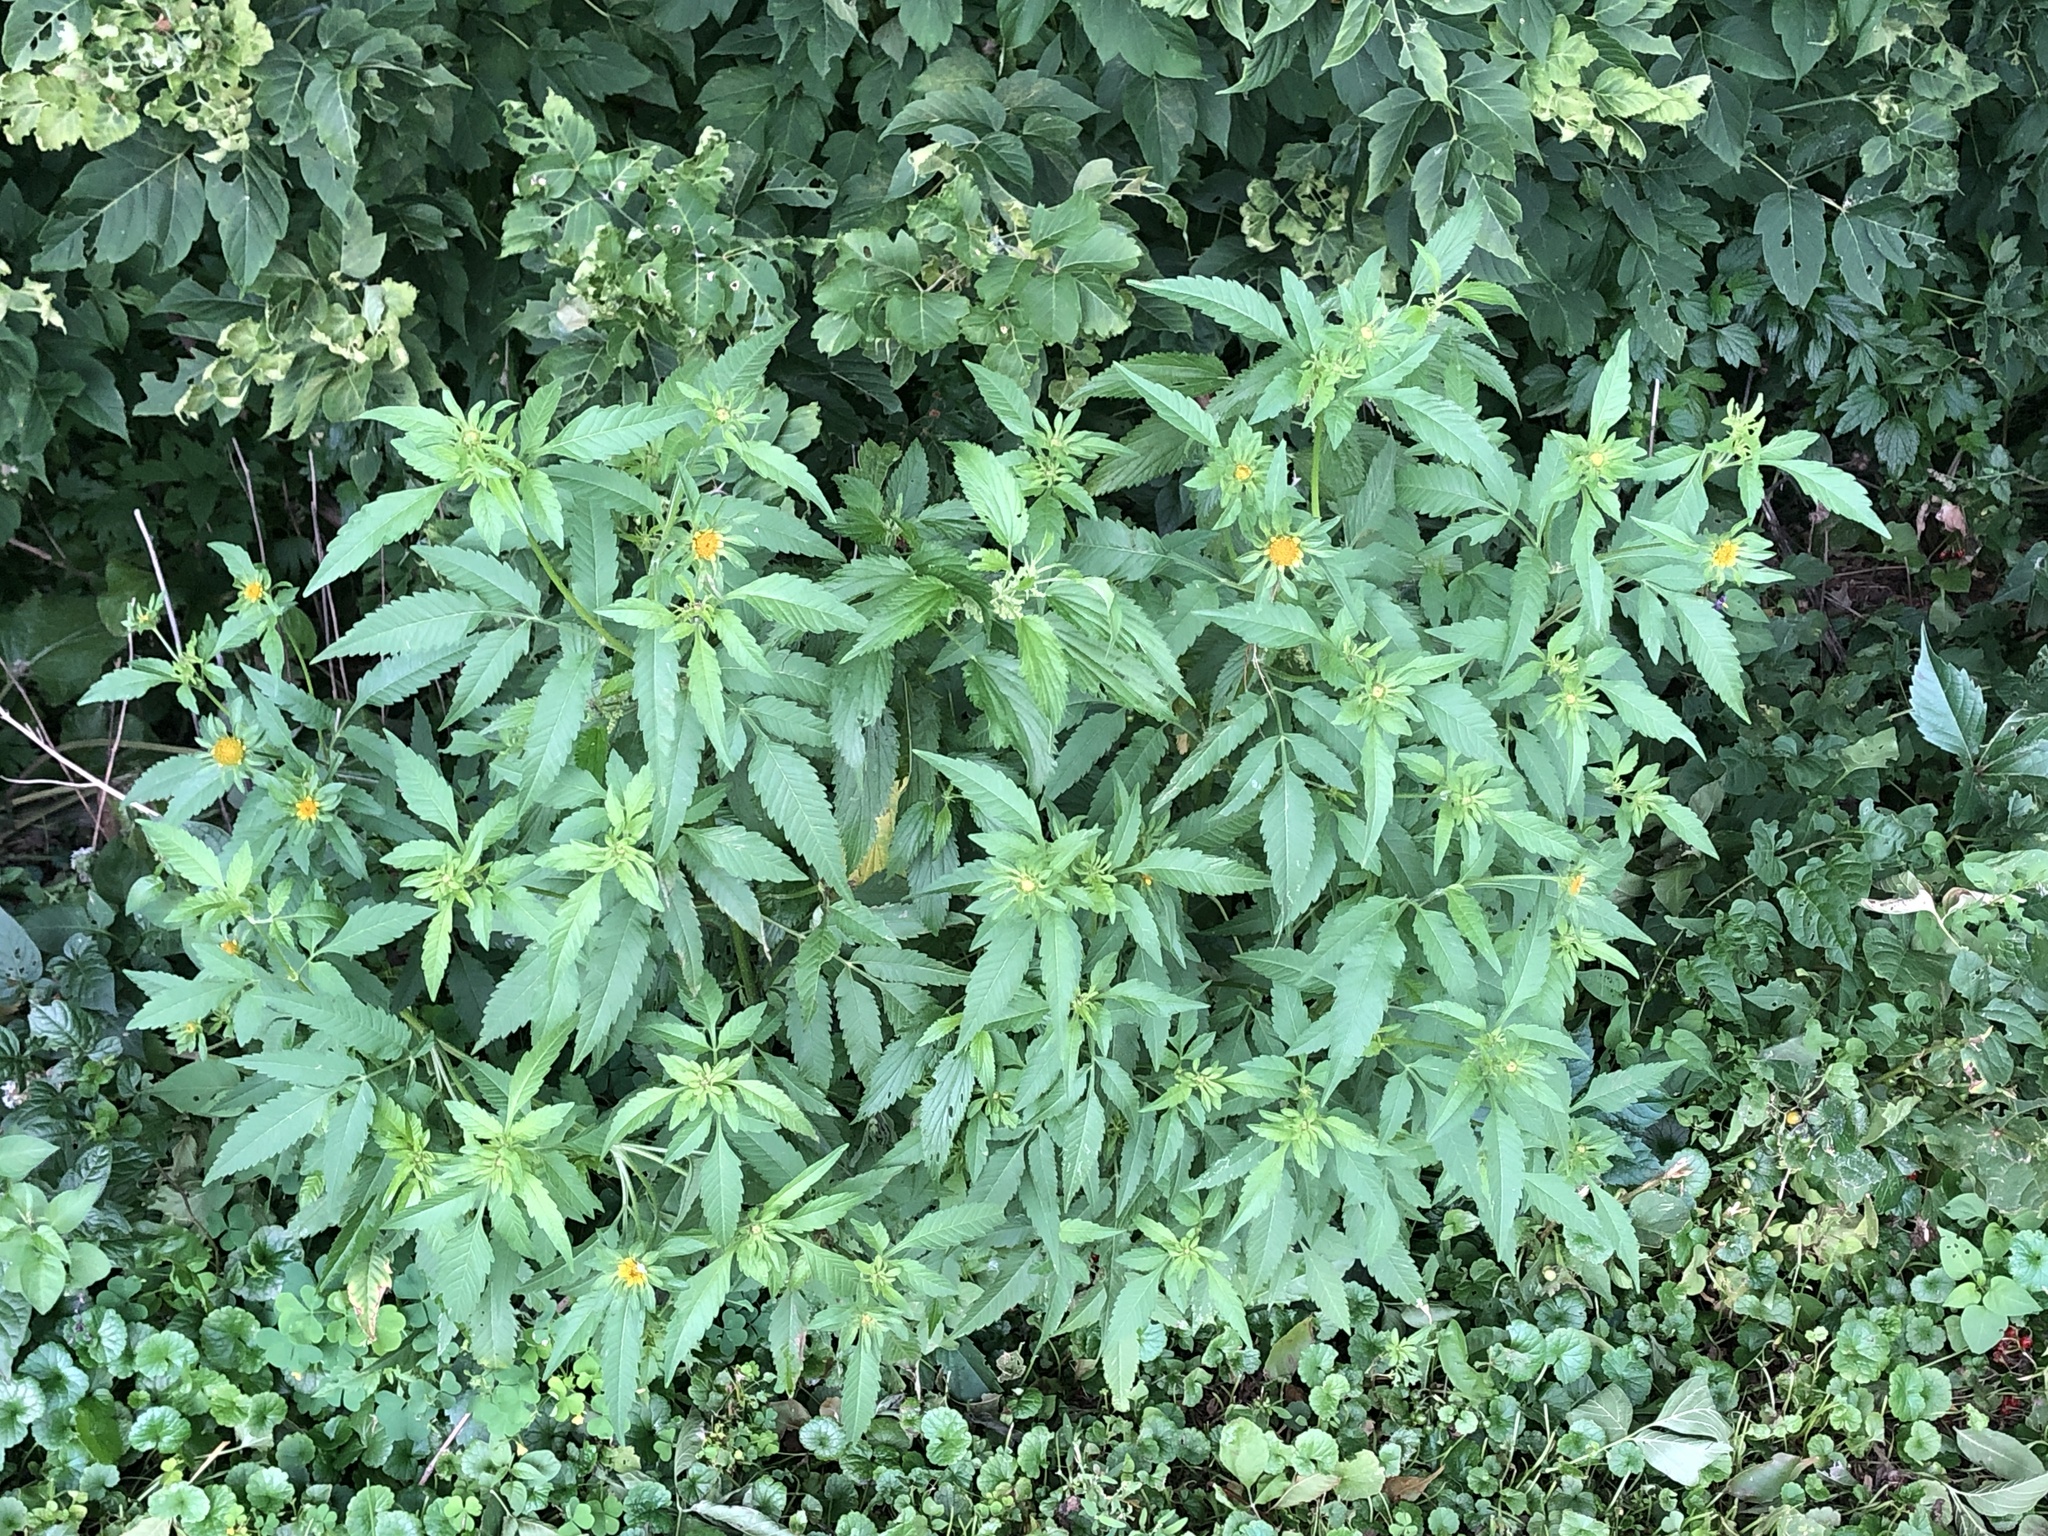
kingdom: Plantae
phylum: Tracheophyta
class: Magnoliopsida
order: Asterales
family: Asteraceae
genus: Bidens
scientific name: Bidens vulgata
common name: Tall beggarticks
